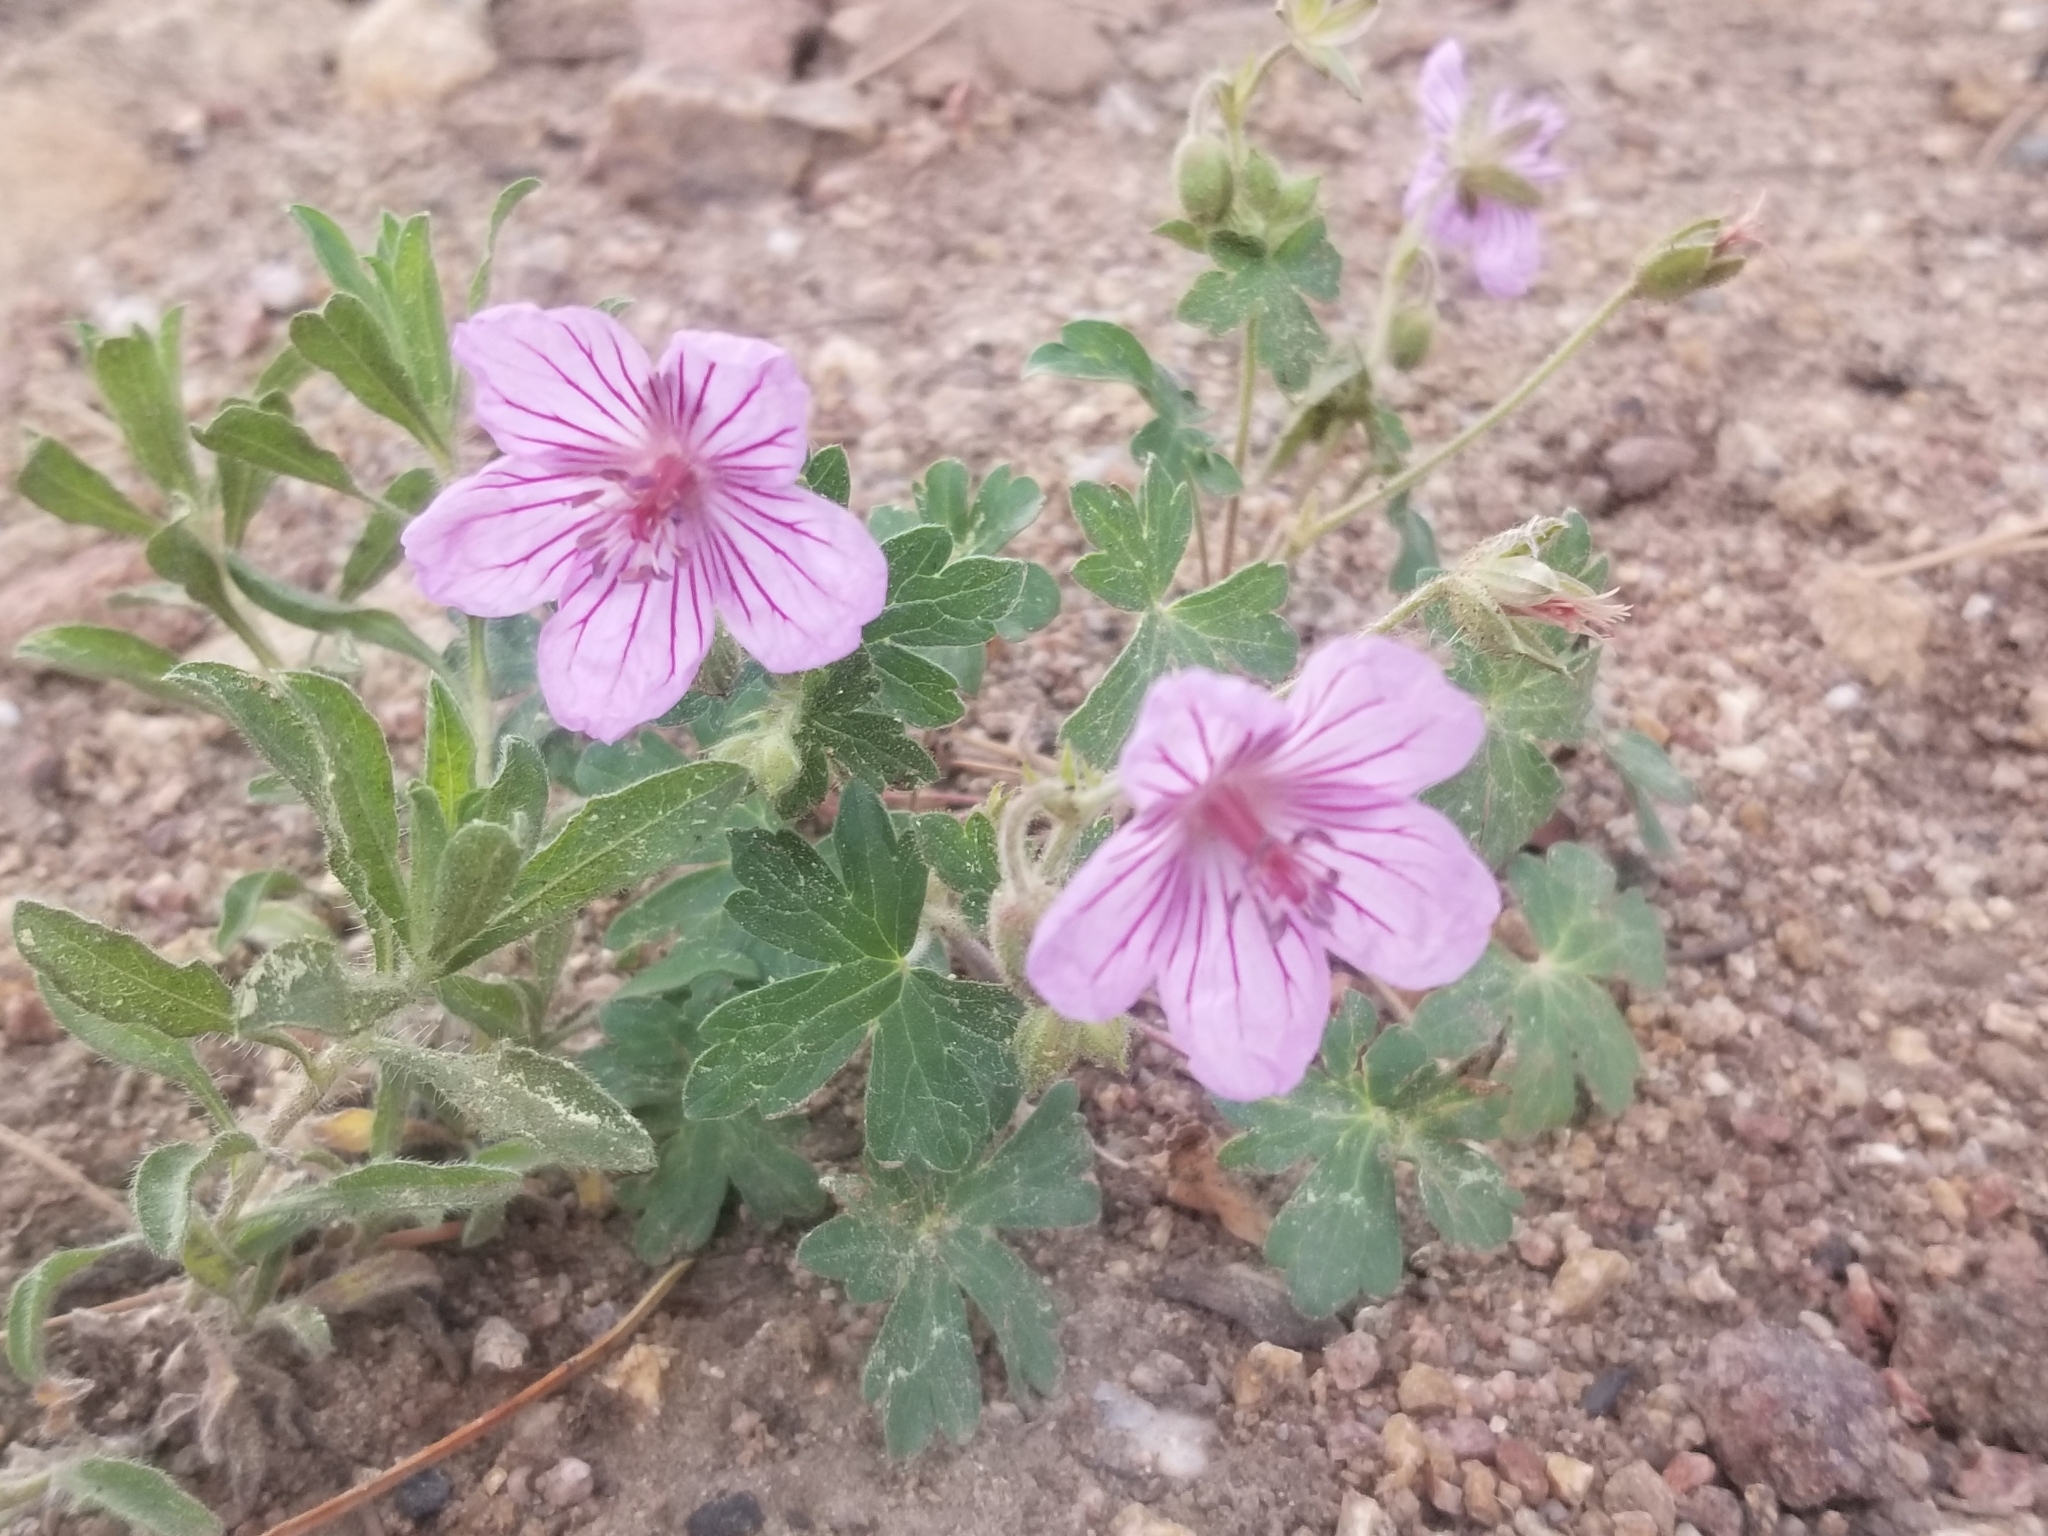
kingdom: Plantae
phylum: Tracheophyta
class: Magnoliopsida
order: Geraniales
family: Geraniaceae
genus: Geranium
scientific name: Geranium caespitosum
